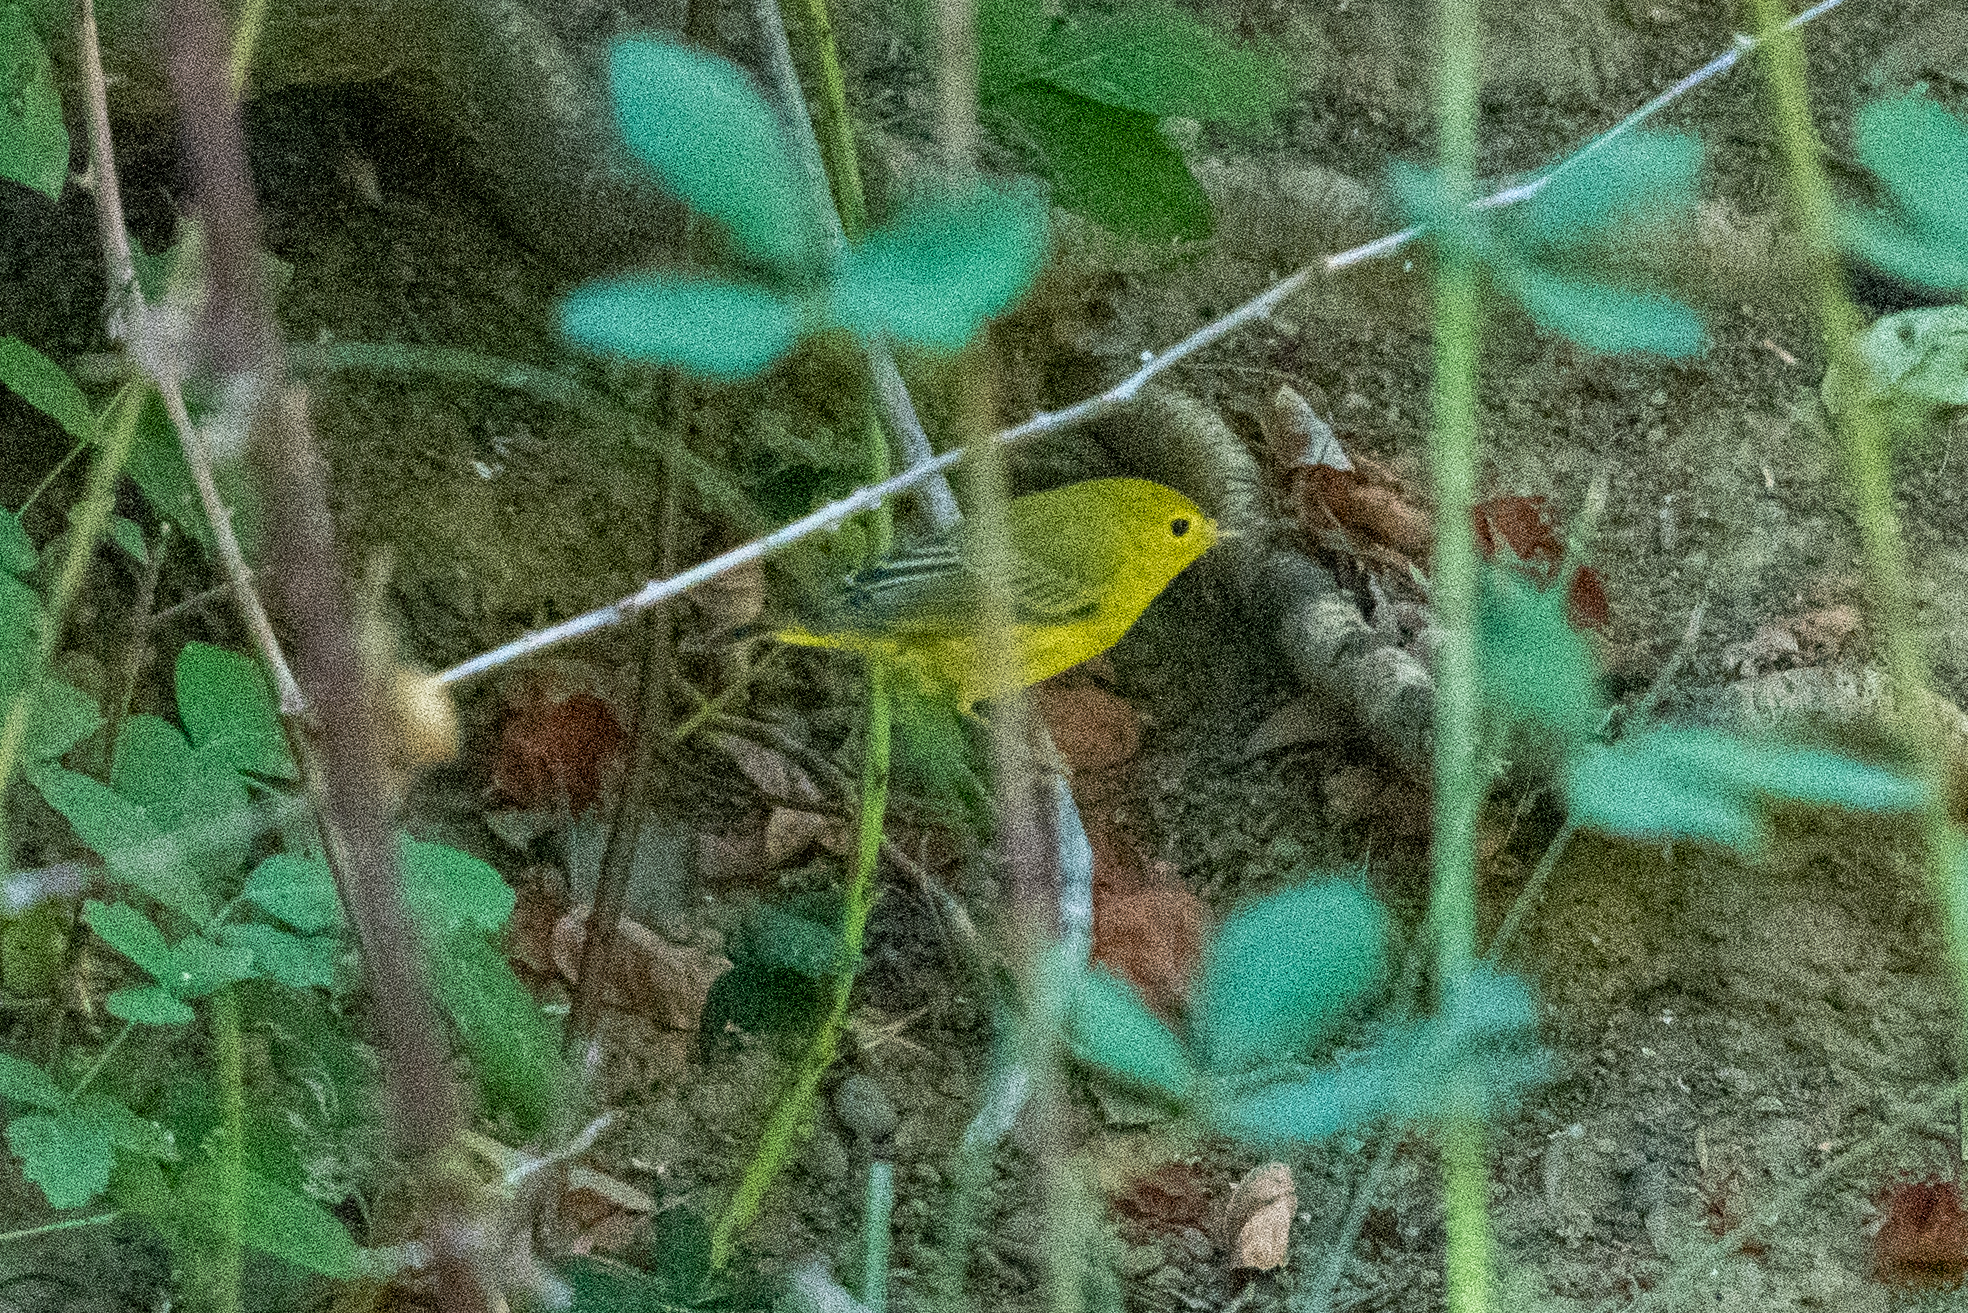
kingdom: Animalia
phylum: Chordata
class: Aves
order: Passeriformes
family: Parulidae
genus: Setophaga
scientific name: Setophaga petechia
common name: Yellow warbler
